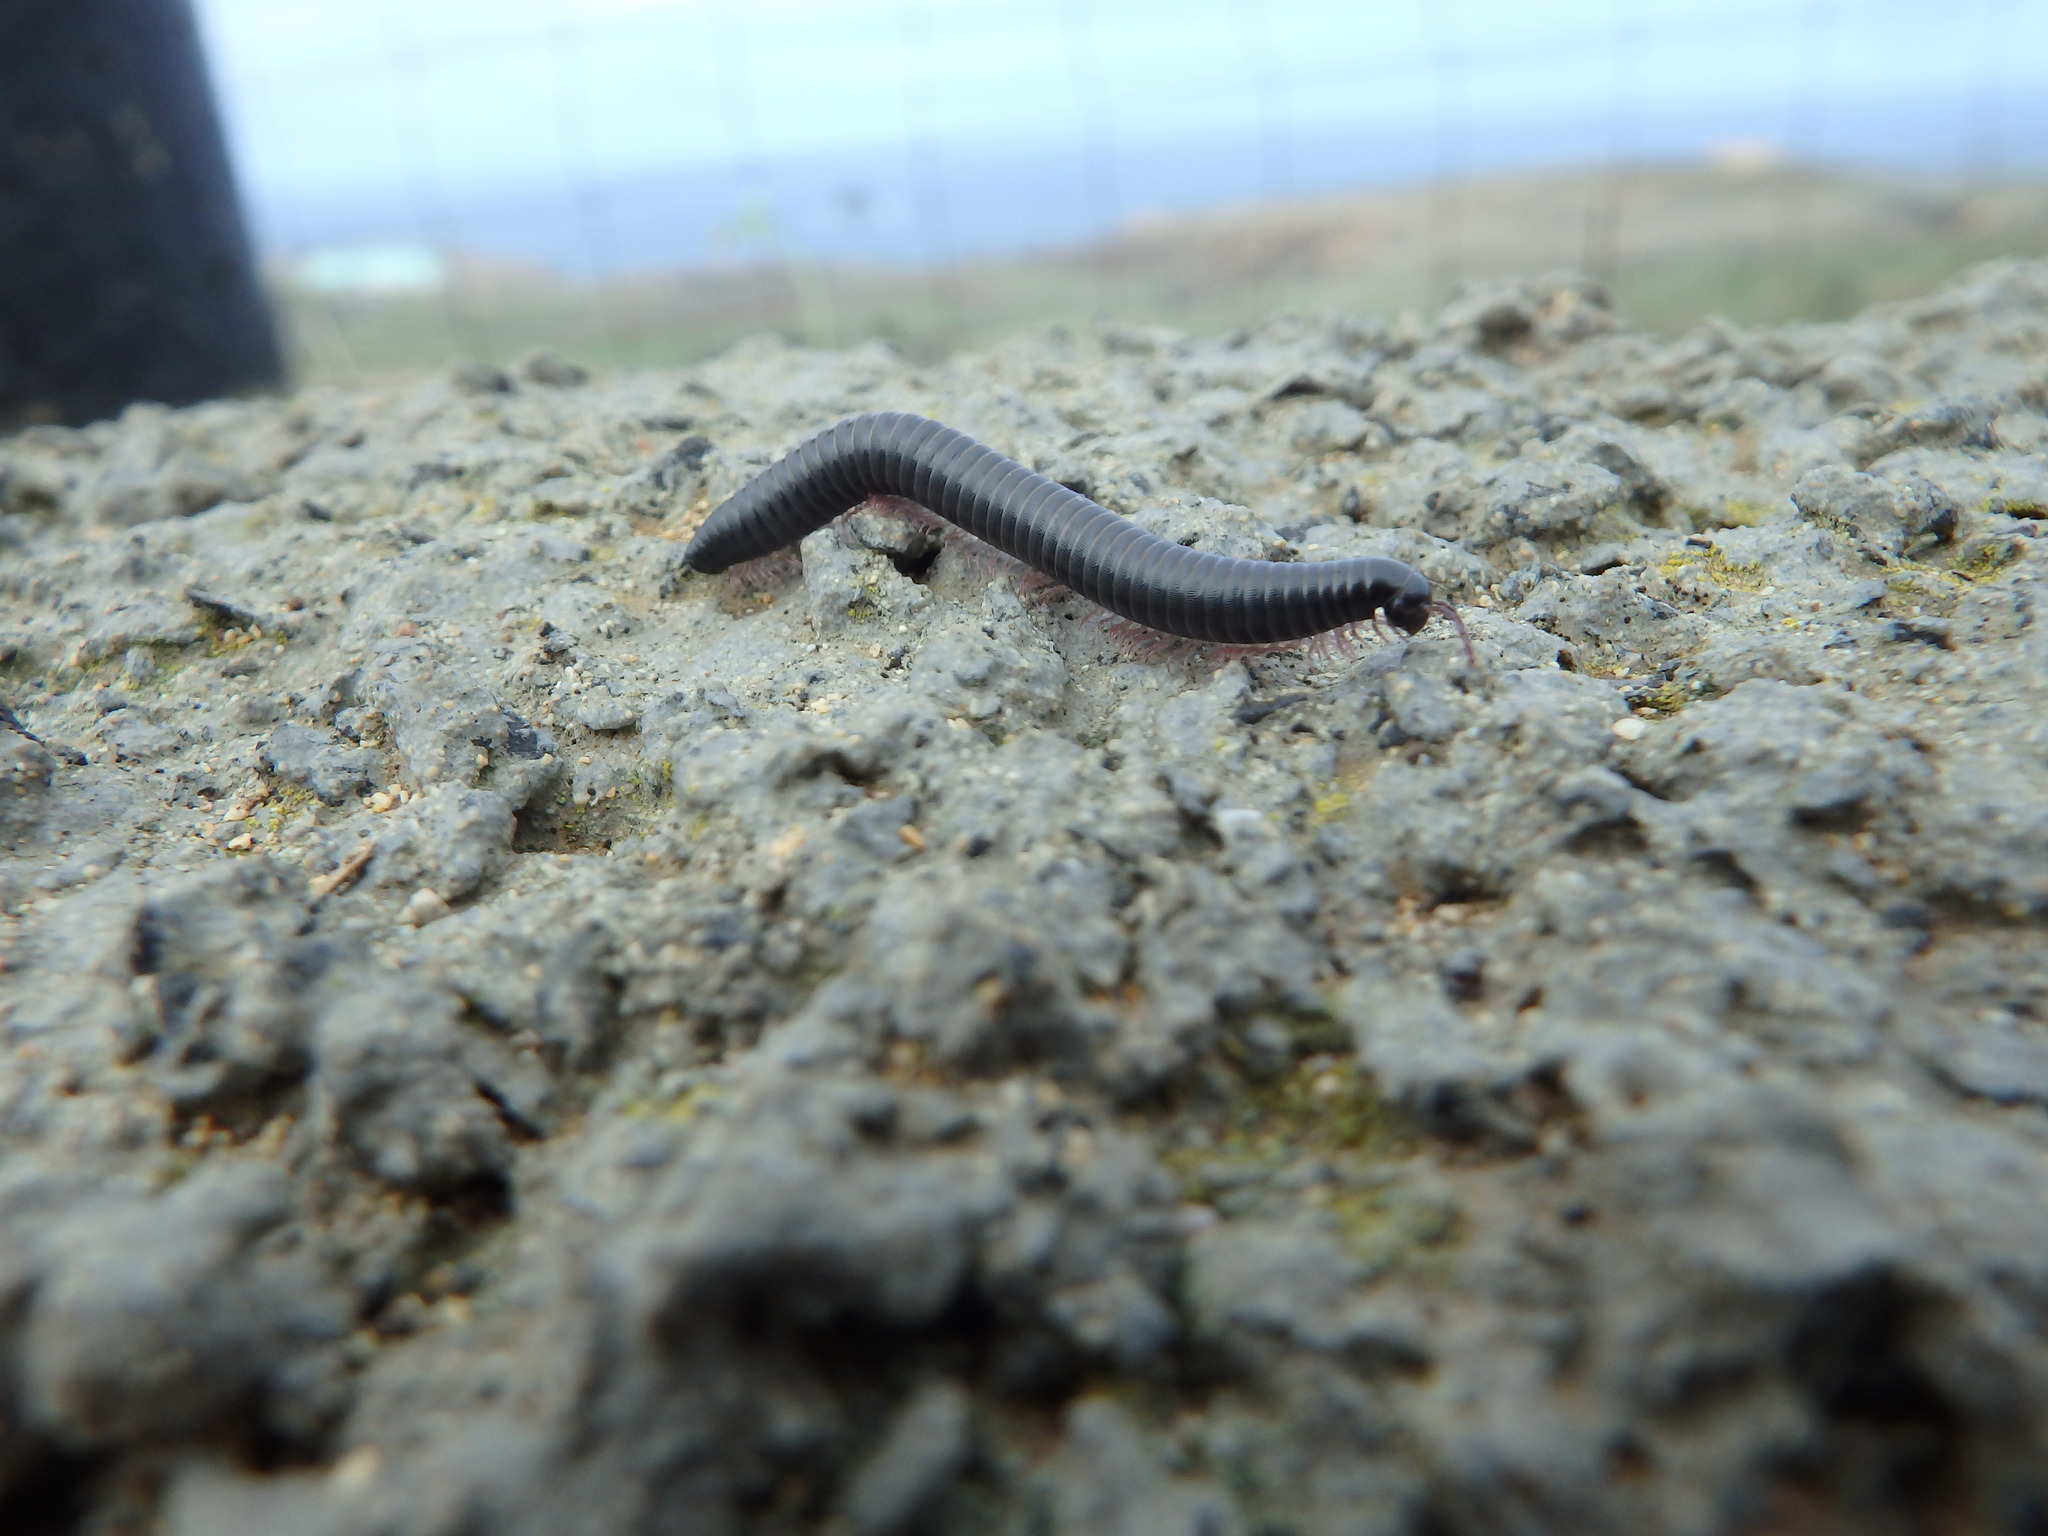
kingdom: Animalia
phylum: Arthropoda
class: Diplopoda
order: Julida
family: Julidae
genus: Ommatoiulus
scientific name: Ommatoiulus moreleti
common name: Portuguese millipede
